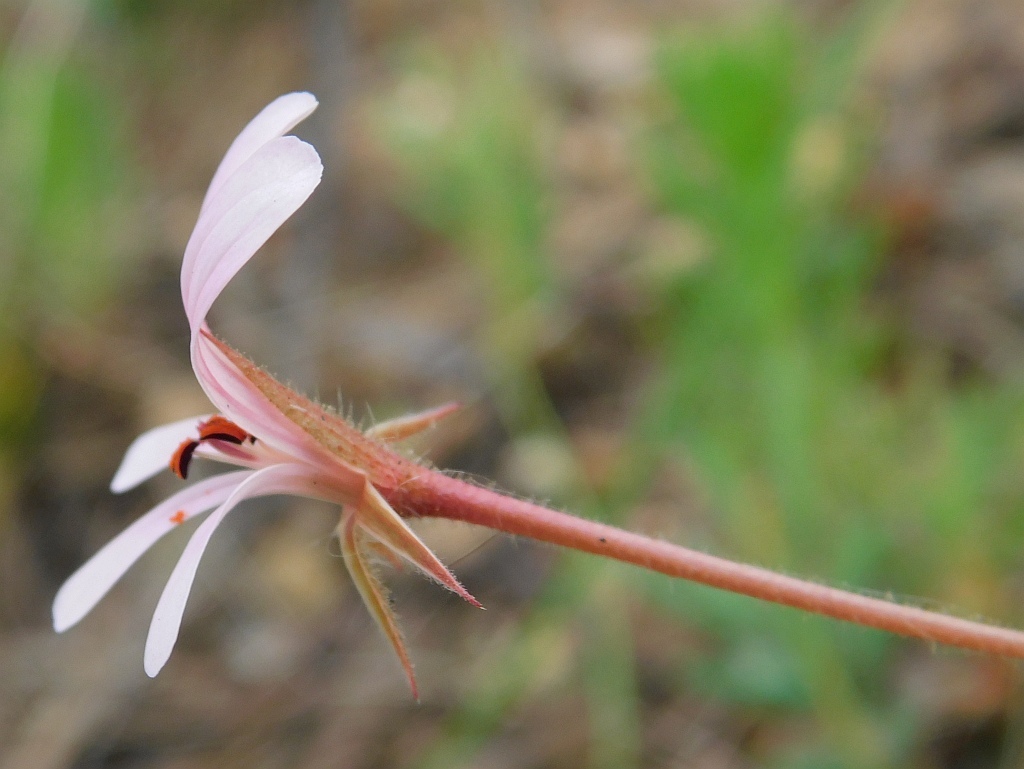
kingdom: Plantae
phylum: Tracheophyta
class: Magnoliopsida
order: Geraniales
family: Geraniaceae
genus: Pelargonium
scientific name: Pelargonium alchemilloides
